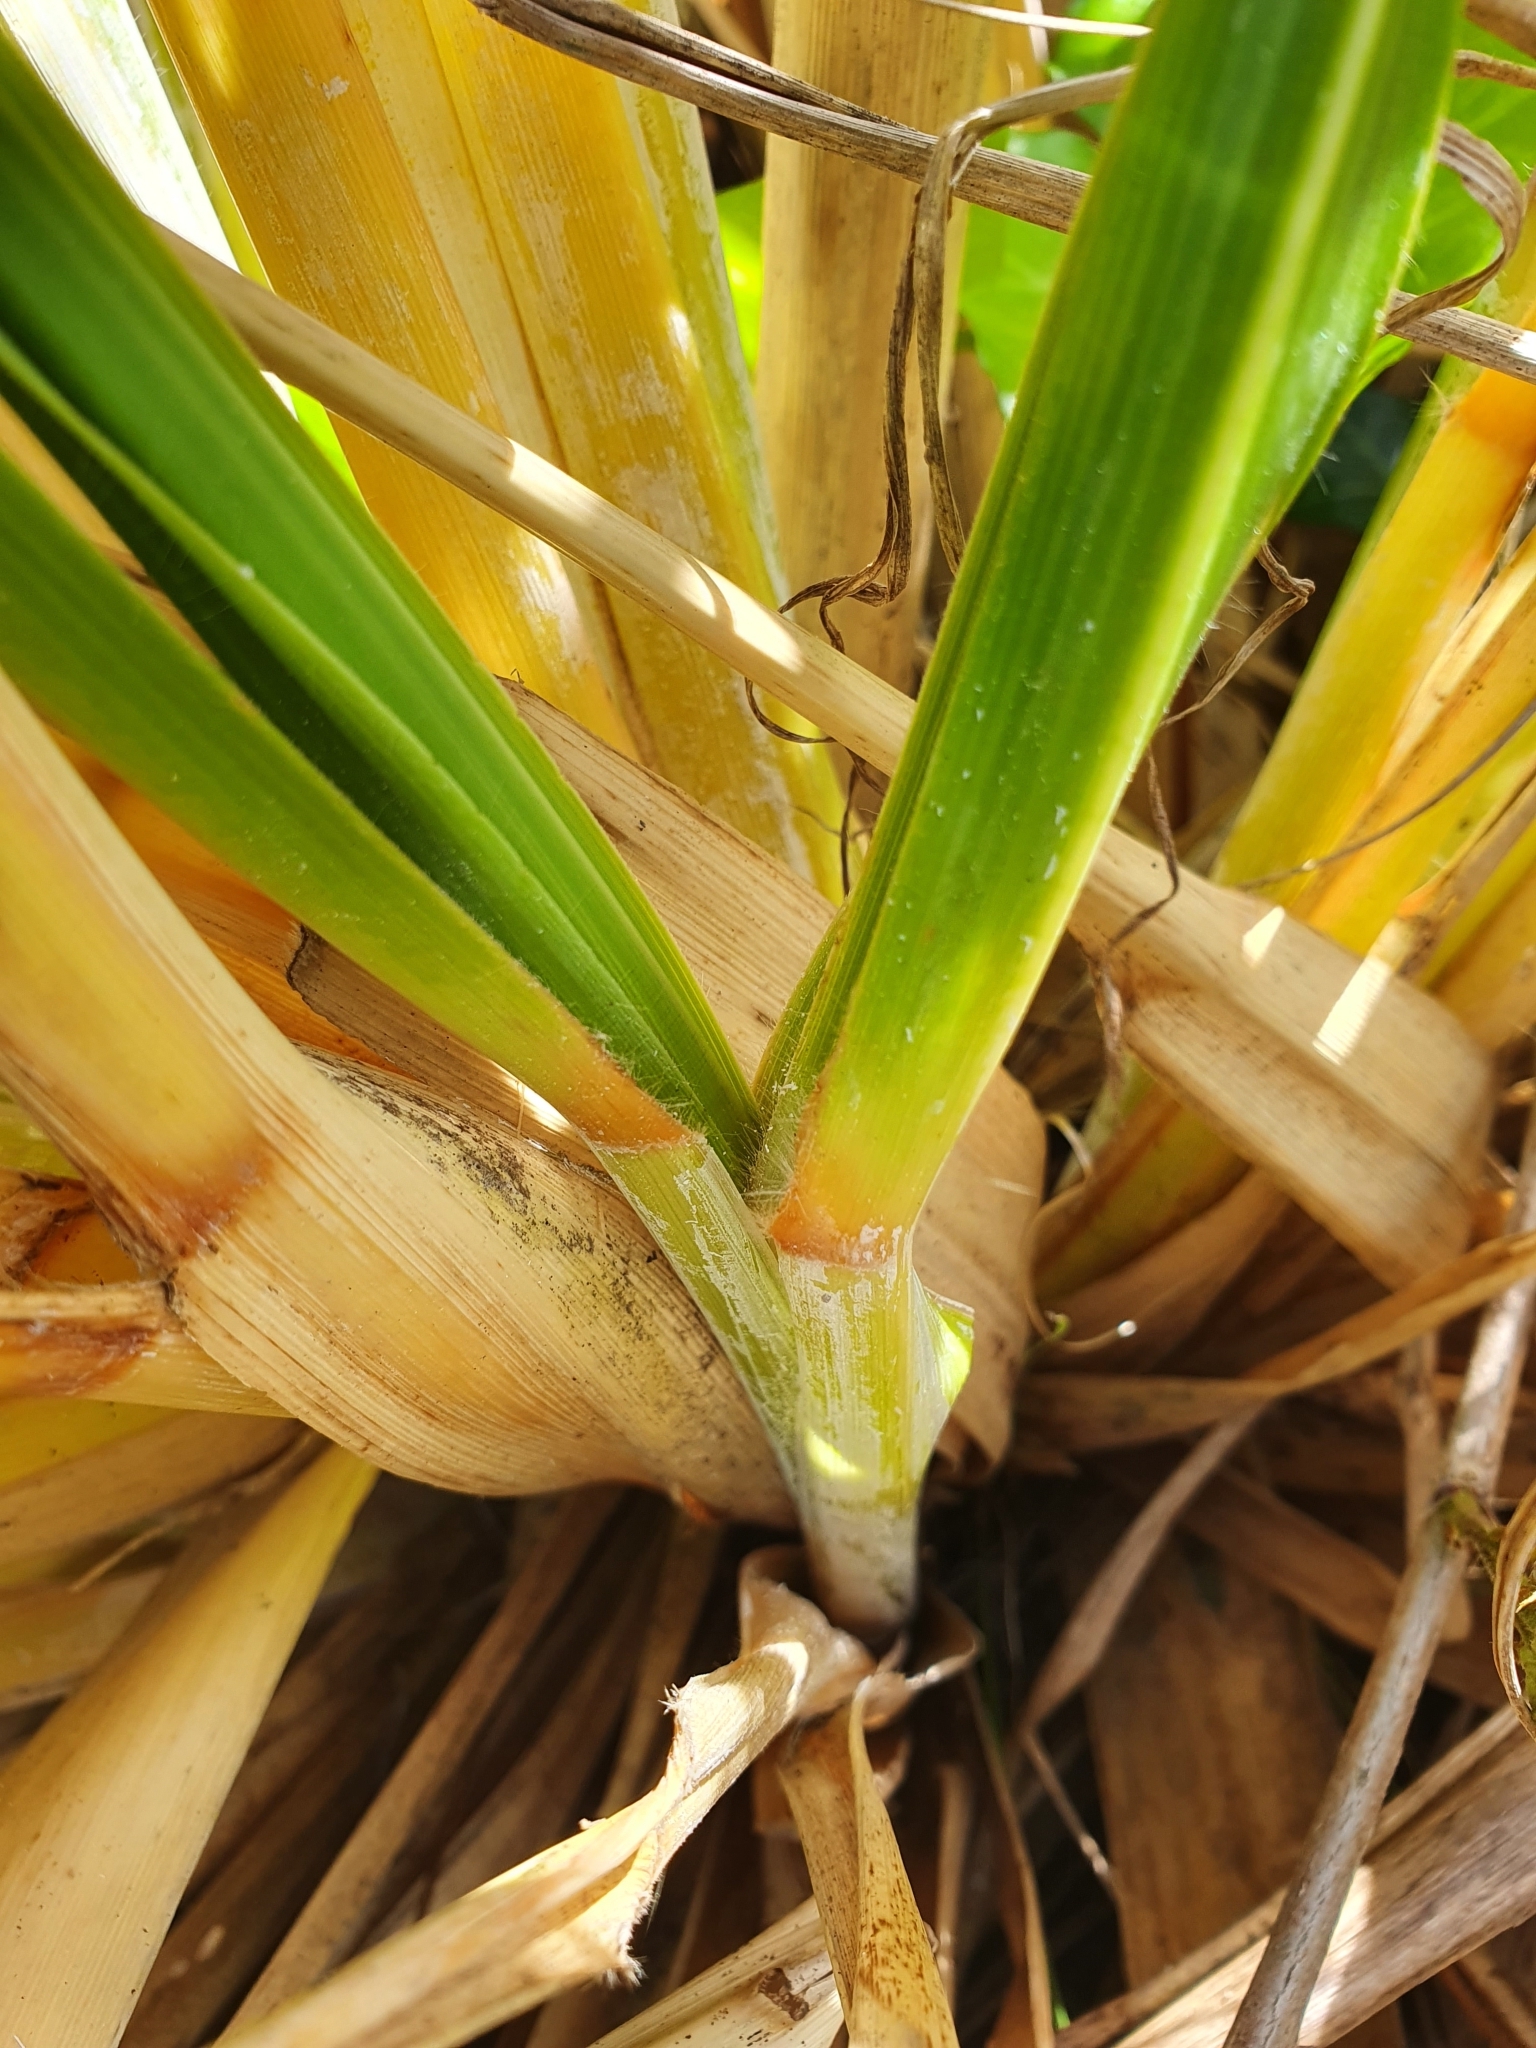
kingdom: Plantae
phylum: Tracheophyta
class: Liliopsida
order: Poales
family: Poaceae
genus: Austroderia
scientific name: Austroderia fulvida
